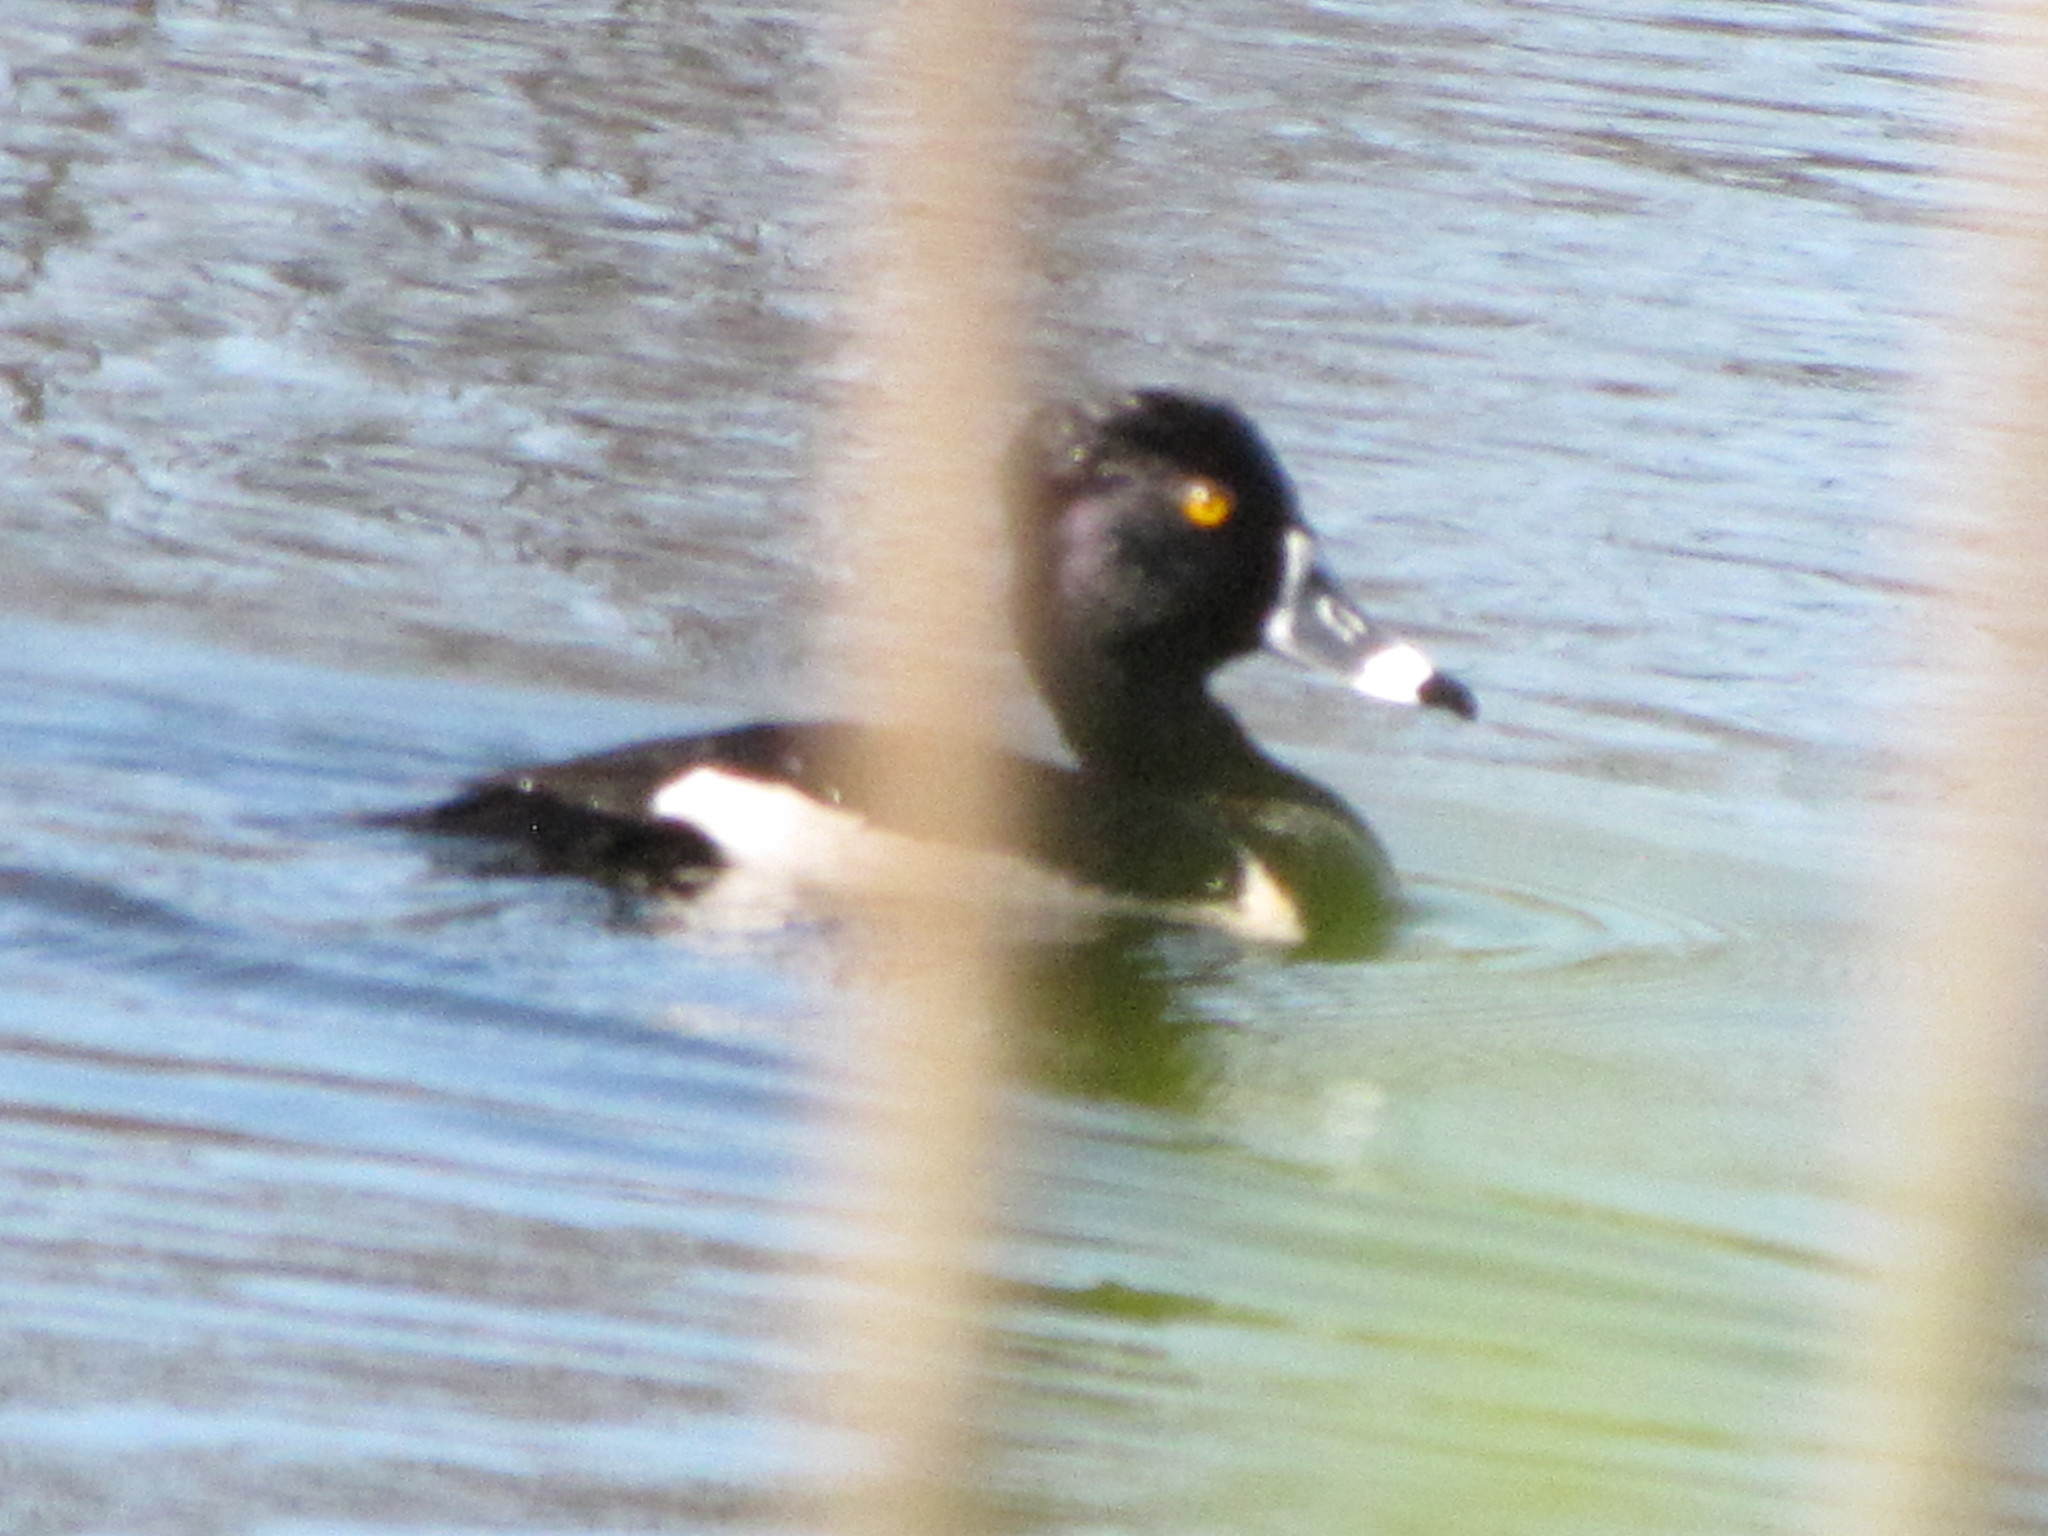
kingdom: Animalia
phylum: Chordata
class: Aves
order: Anseriformes
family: Anatidae
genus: Aythya
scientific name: Aythya collaris
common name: Ring-necked duck
